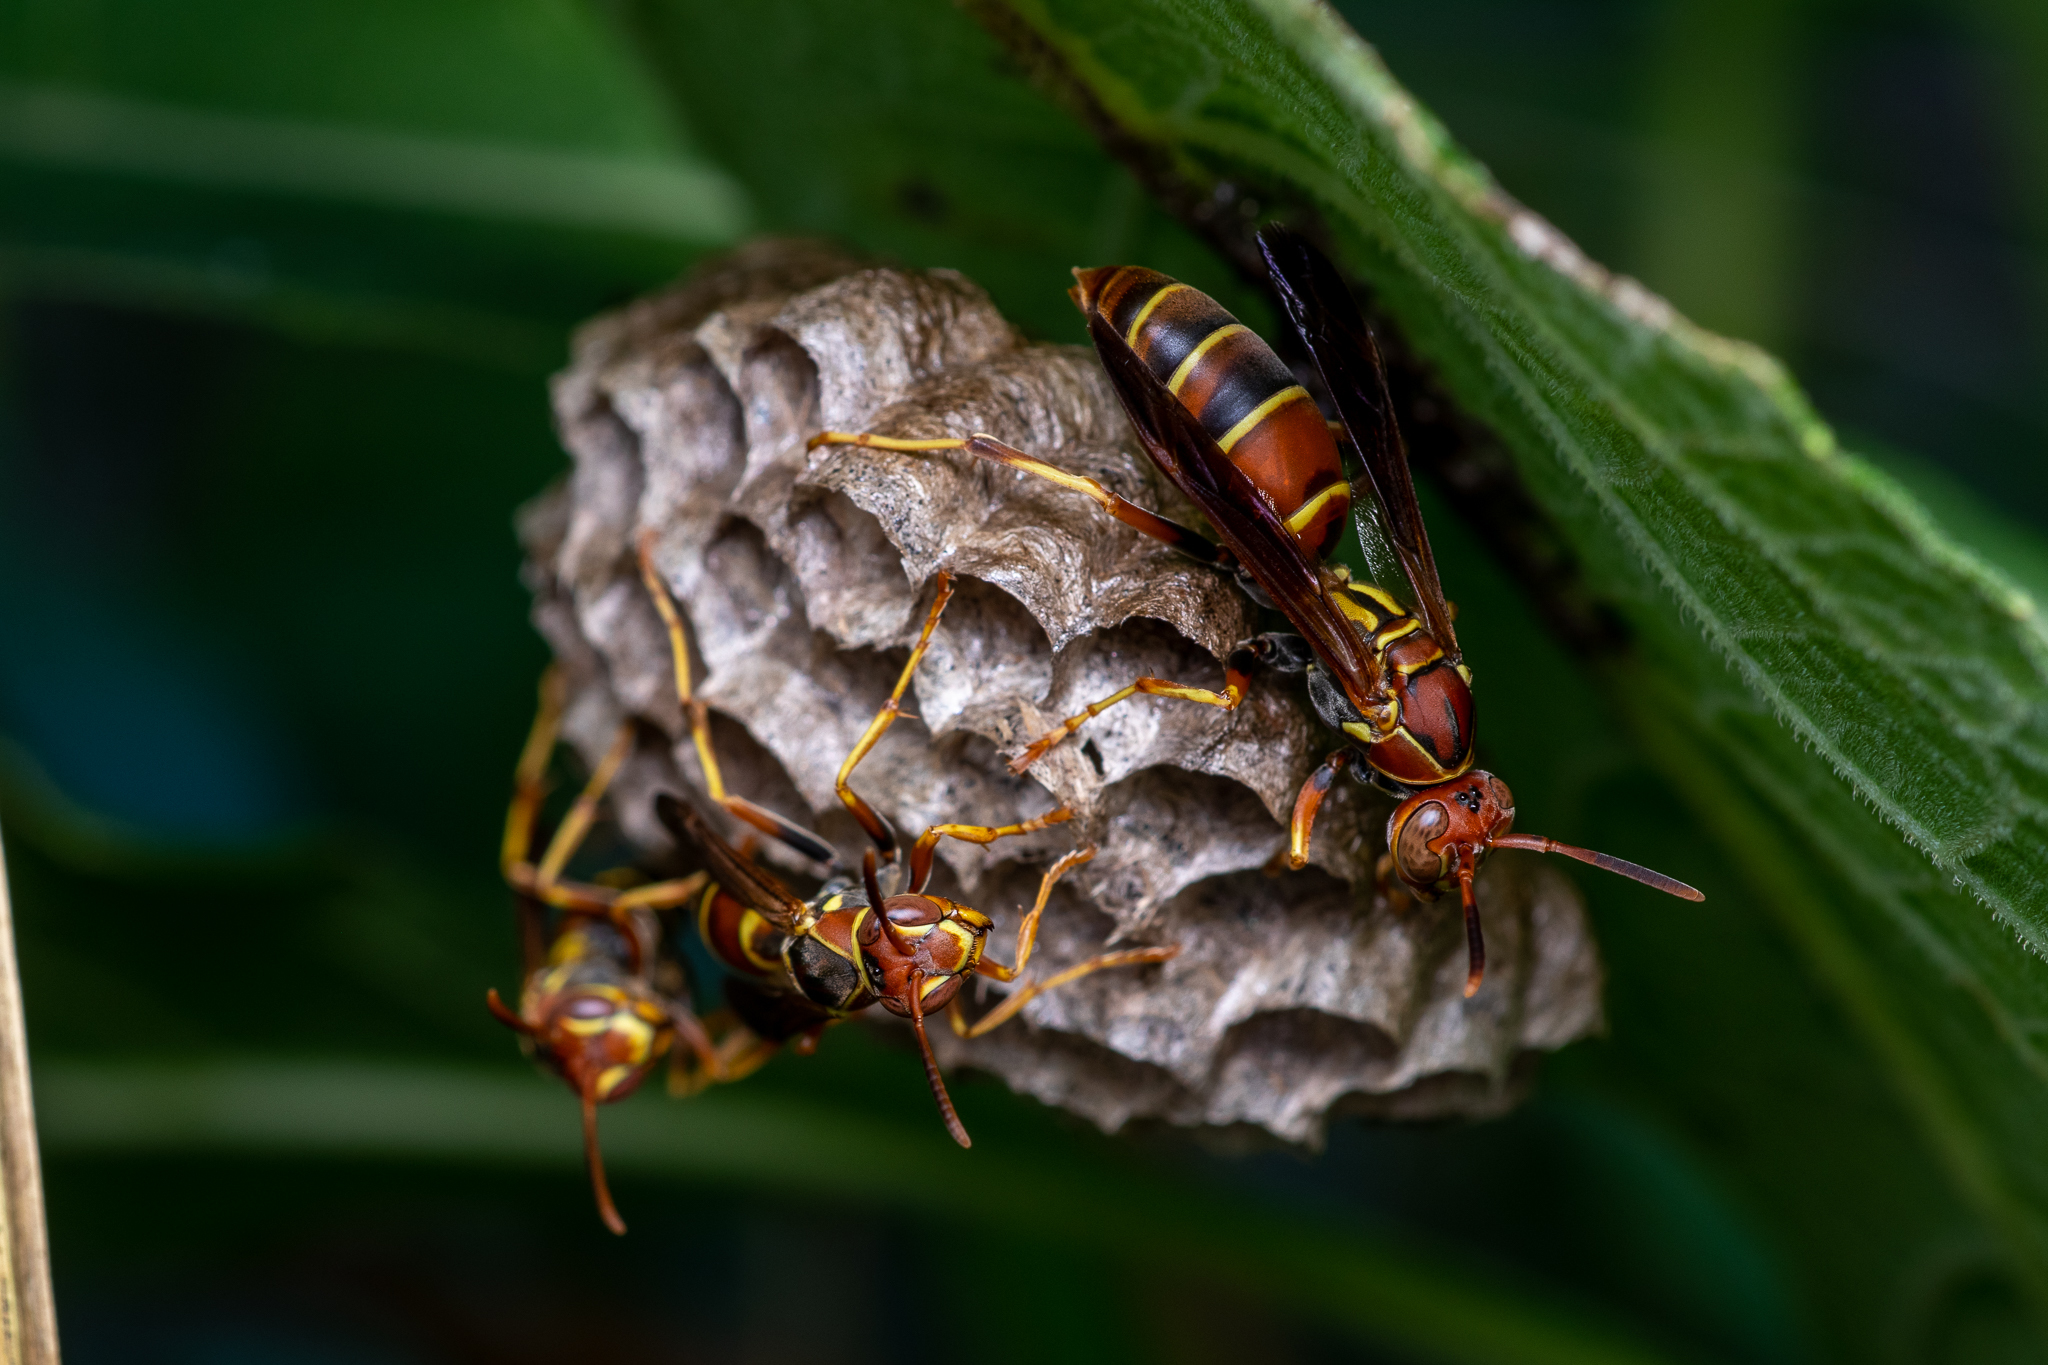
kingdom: Animalia
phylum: Arthropoda
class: Insecta
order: Hymenoptera
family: Eumenidae
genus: Polistes
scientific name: Polistes dorsalis
